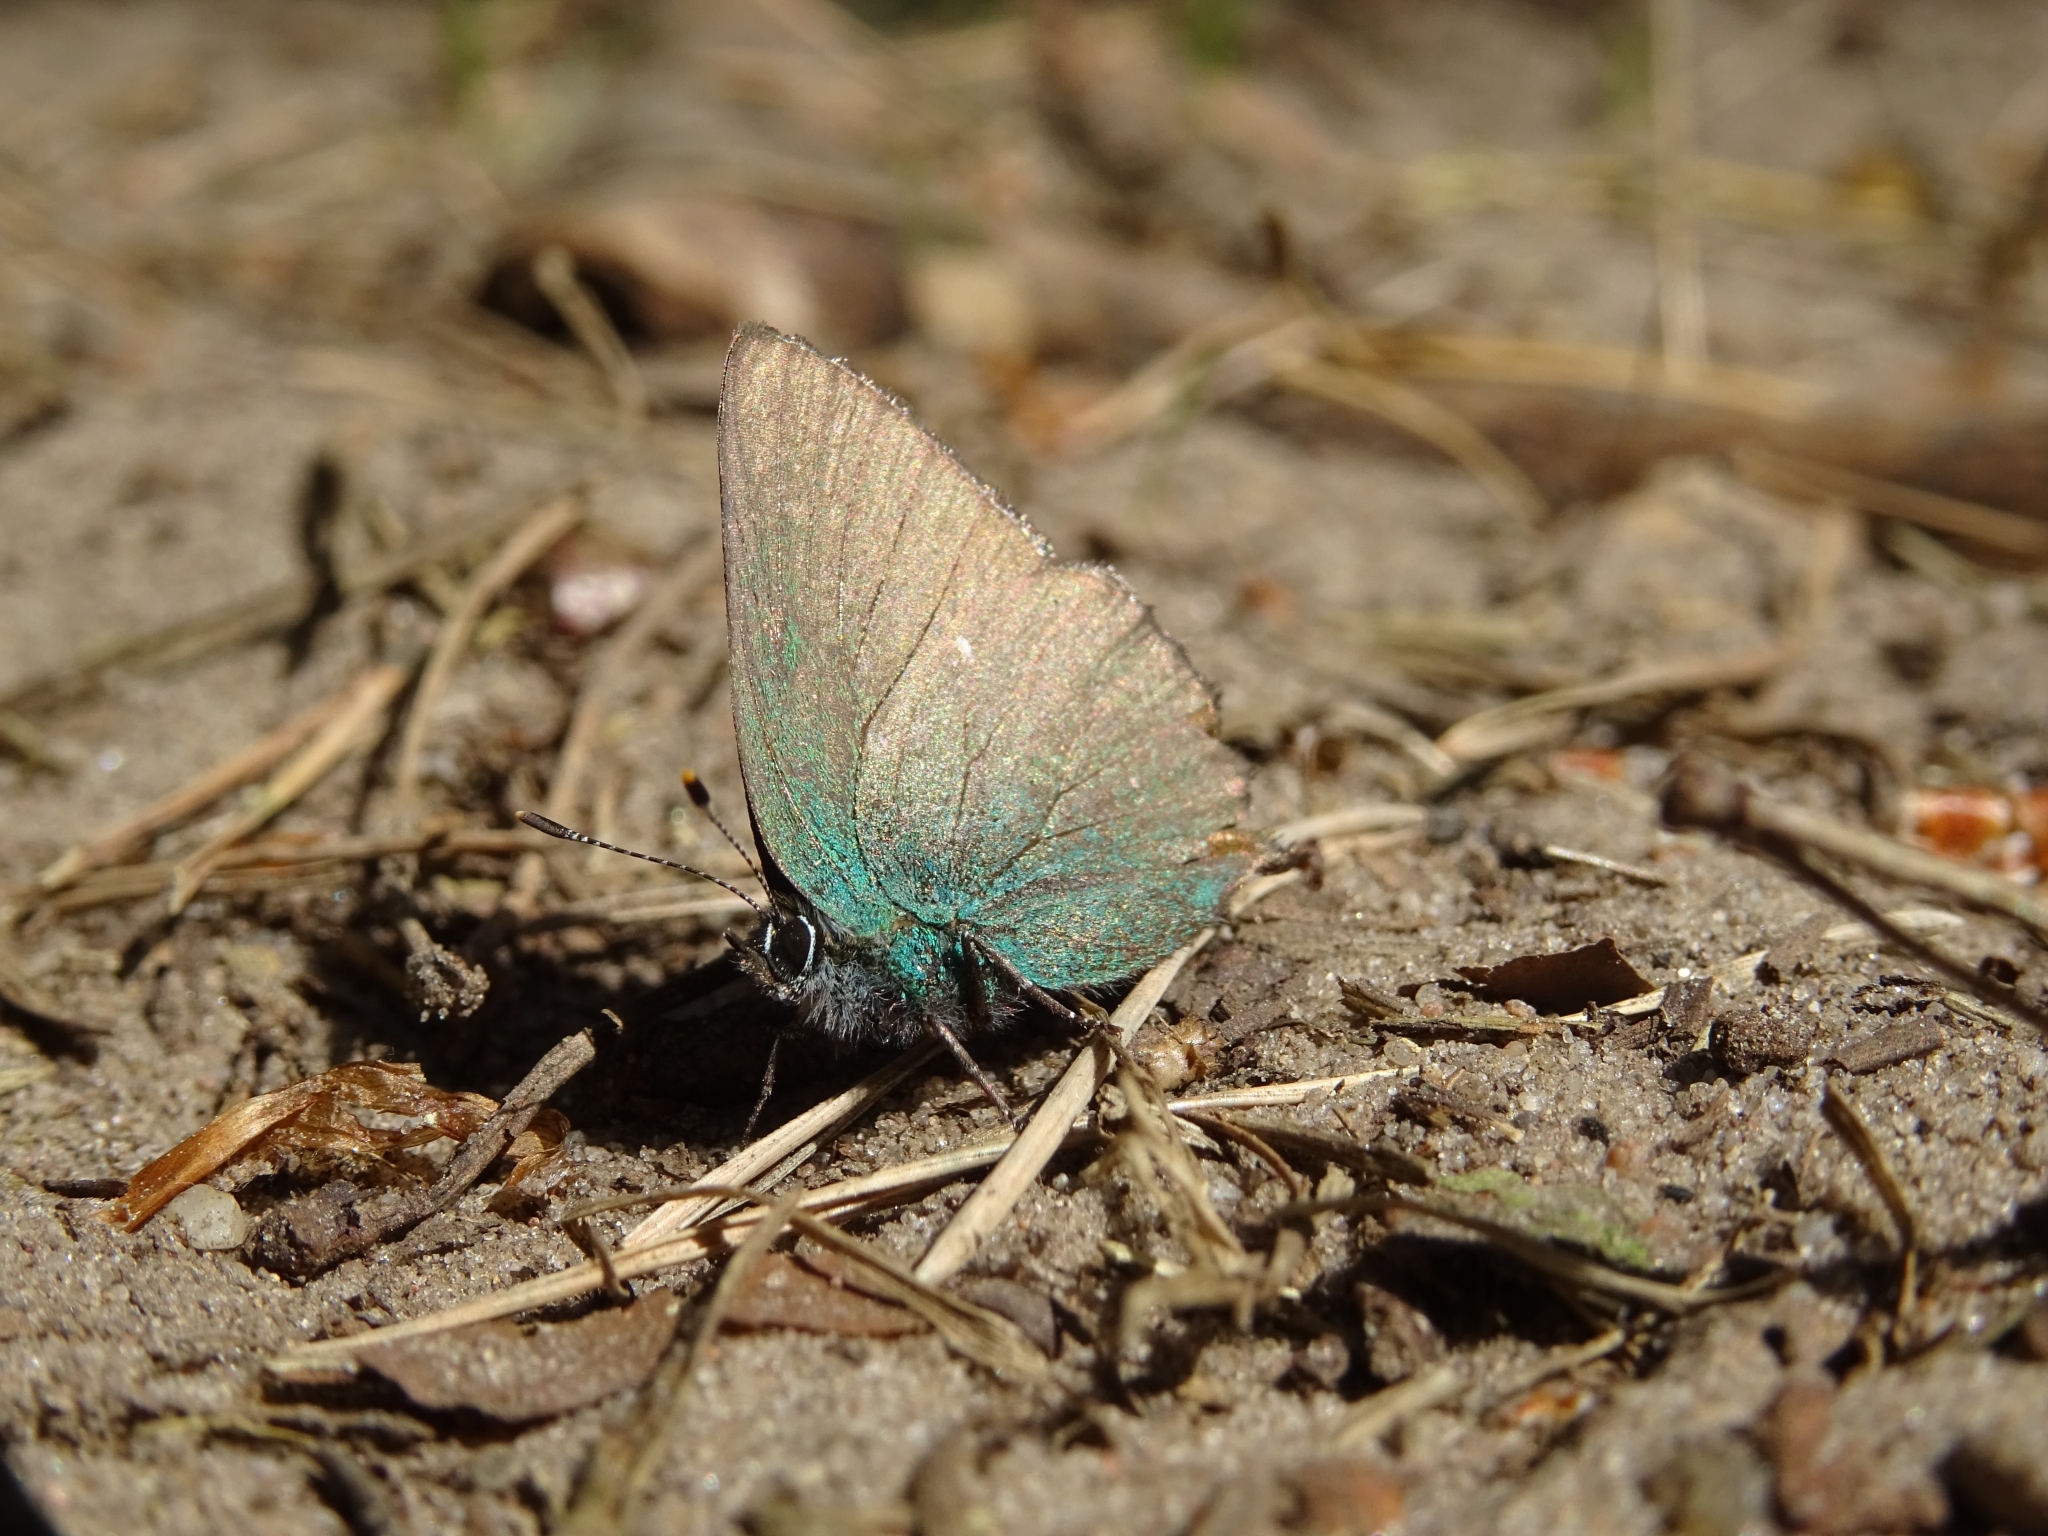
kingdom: Animalia
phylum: Arthropoda
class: Insecta
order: Lepidoptera
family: Lycaenidae
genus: Callophrys
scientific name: Callophrys rubi
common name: Green hairstreak
